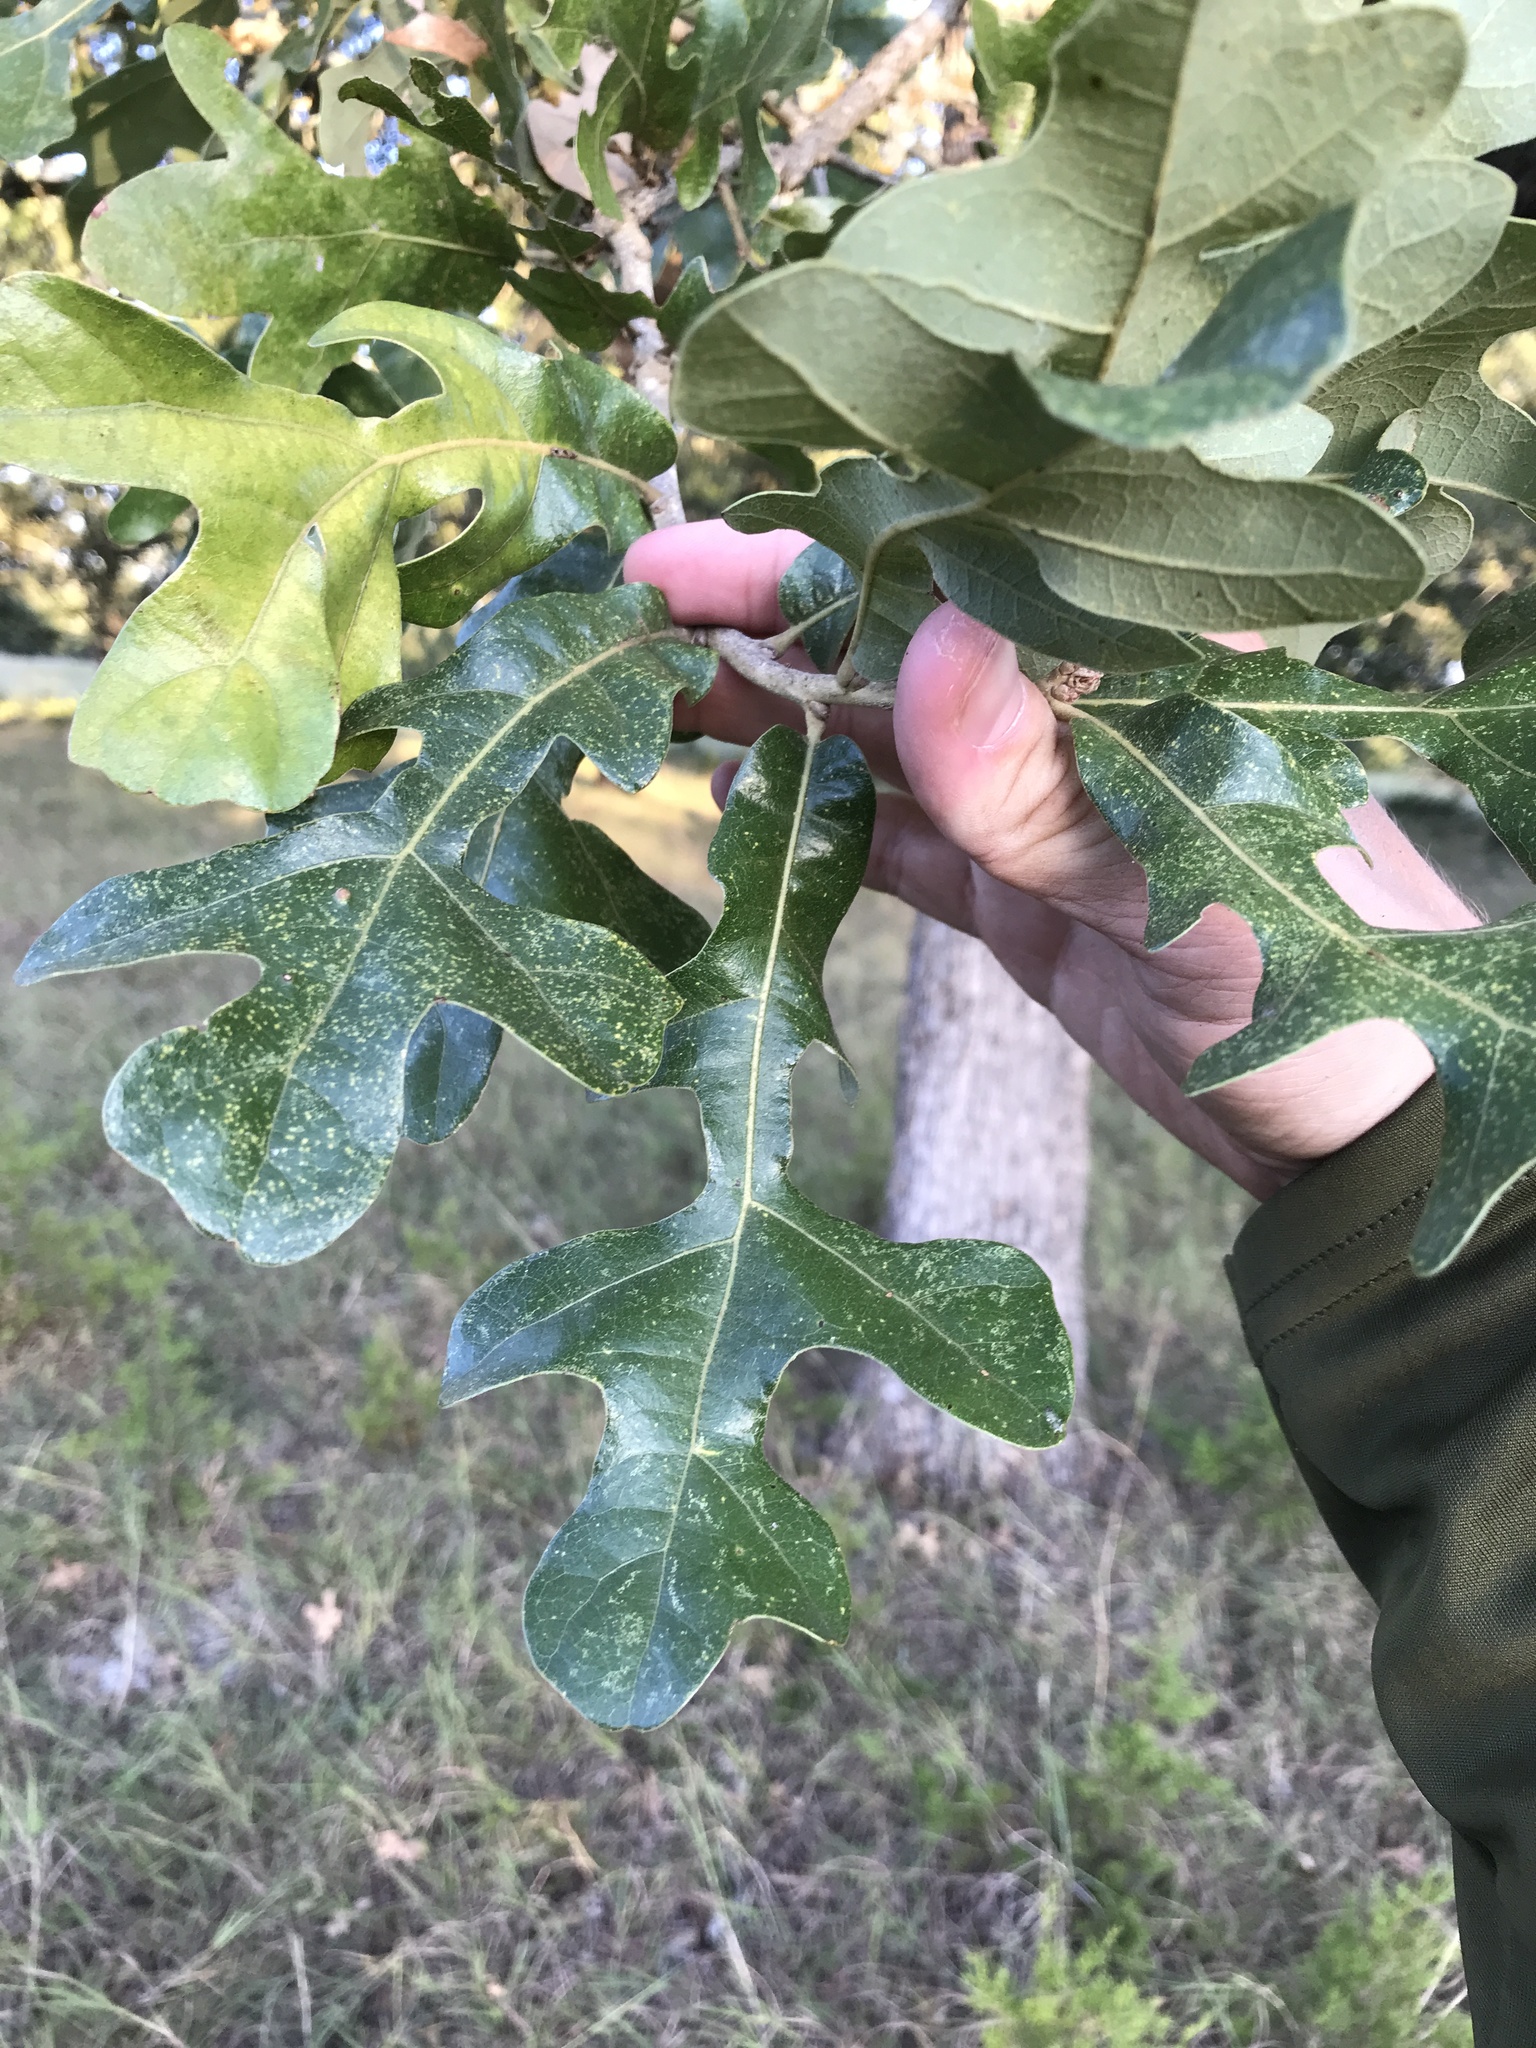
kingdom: Plantae
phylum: Tracheophyta
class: Magnoliopsida
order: Fagales
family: Fagaceae
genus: Quercus
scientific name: Quercus stellata
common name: Post oak
